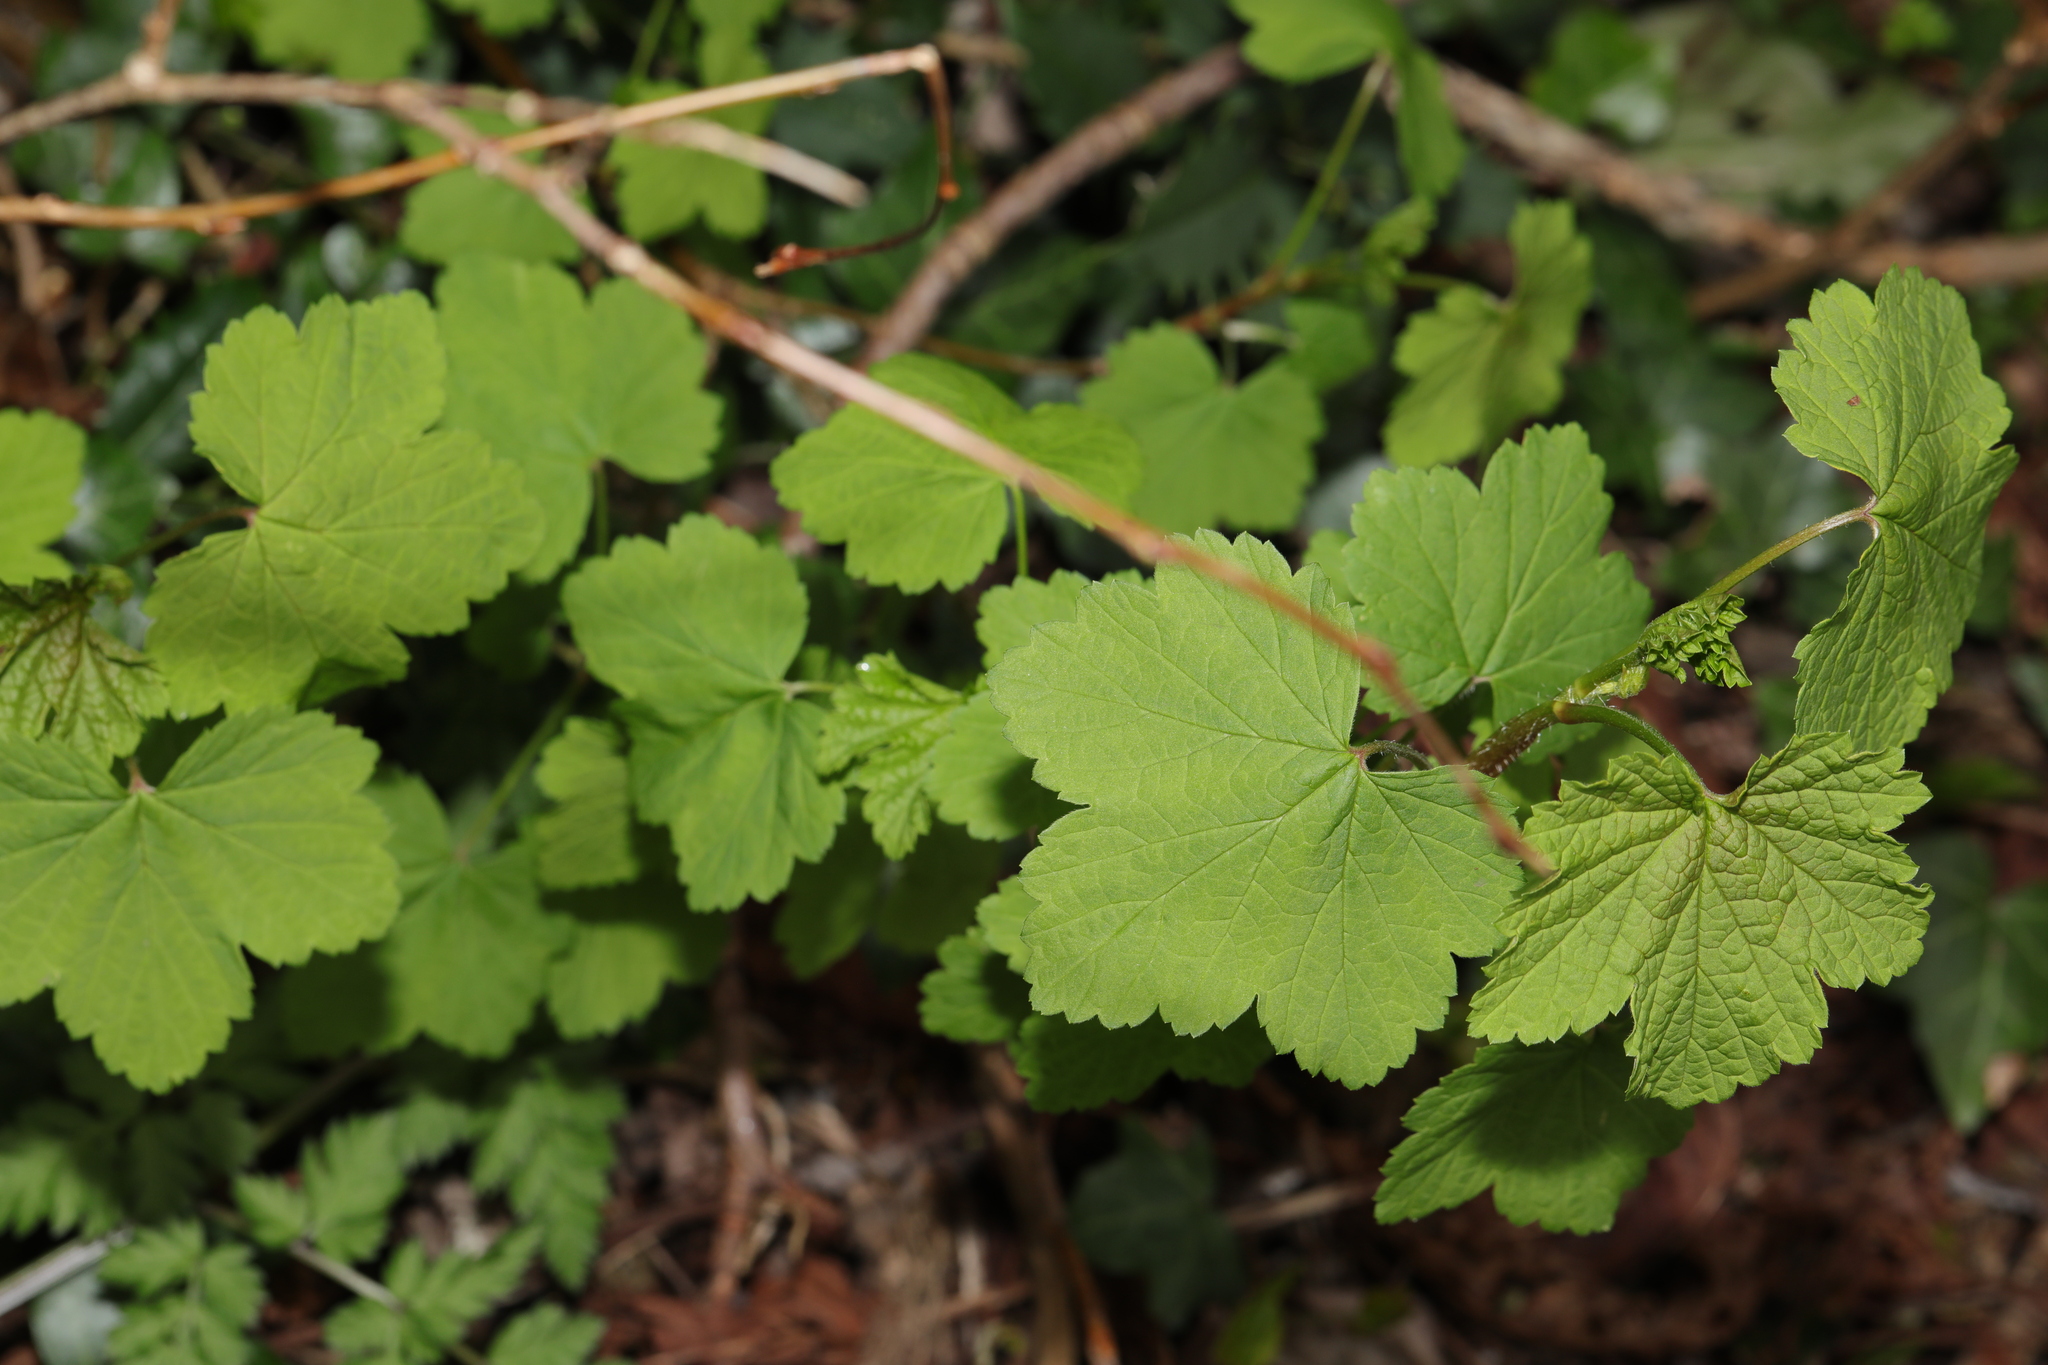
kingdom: Plantae
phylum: Tracheophyta
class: Magnoliopsida
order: Saxifragales
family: Grossulariaceae
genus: Ribes
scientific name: Ribes rubrum
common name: Red currant
